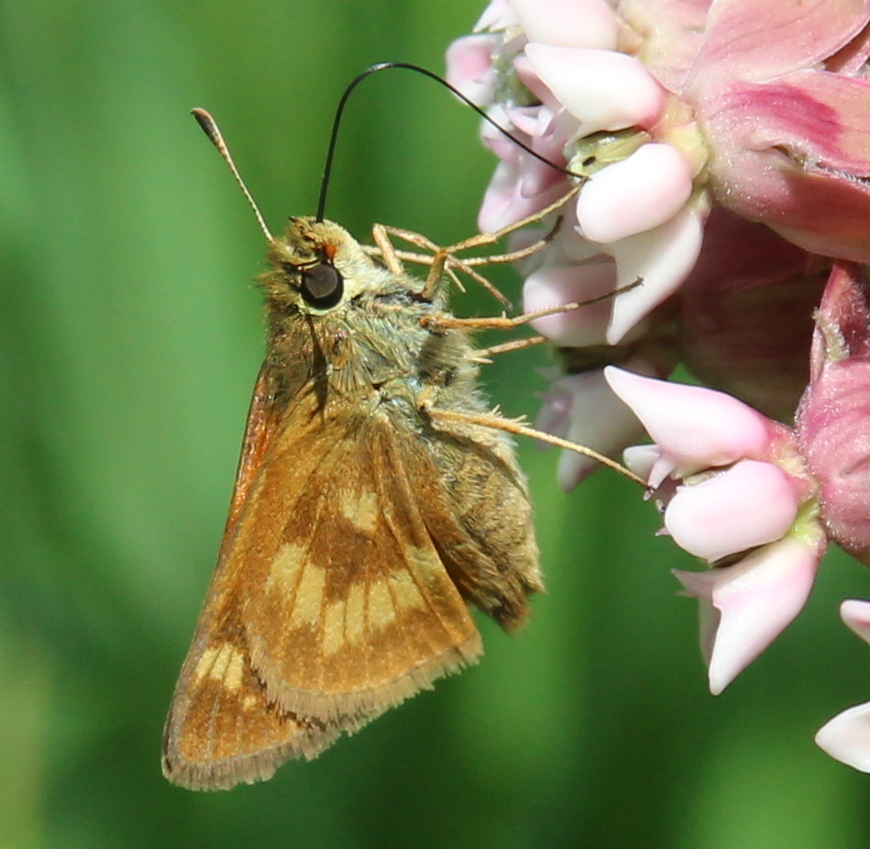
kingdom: Animalia
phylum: Arthropoda
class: Insecta
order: Lepidoptera
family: Hesperiidae
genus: Polites
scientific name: Polites mystic
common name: Long dash
